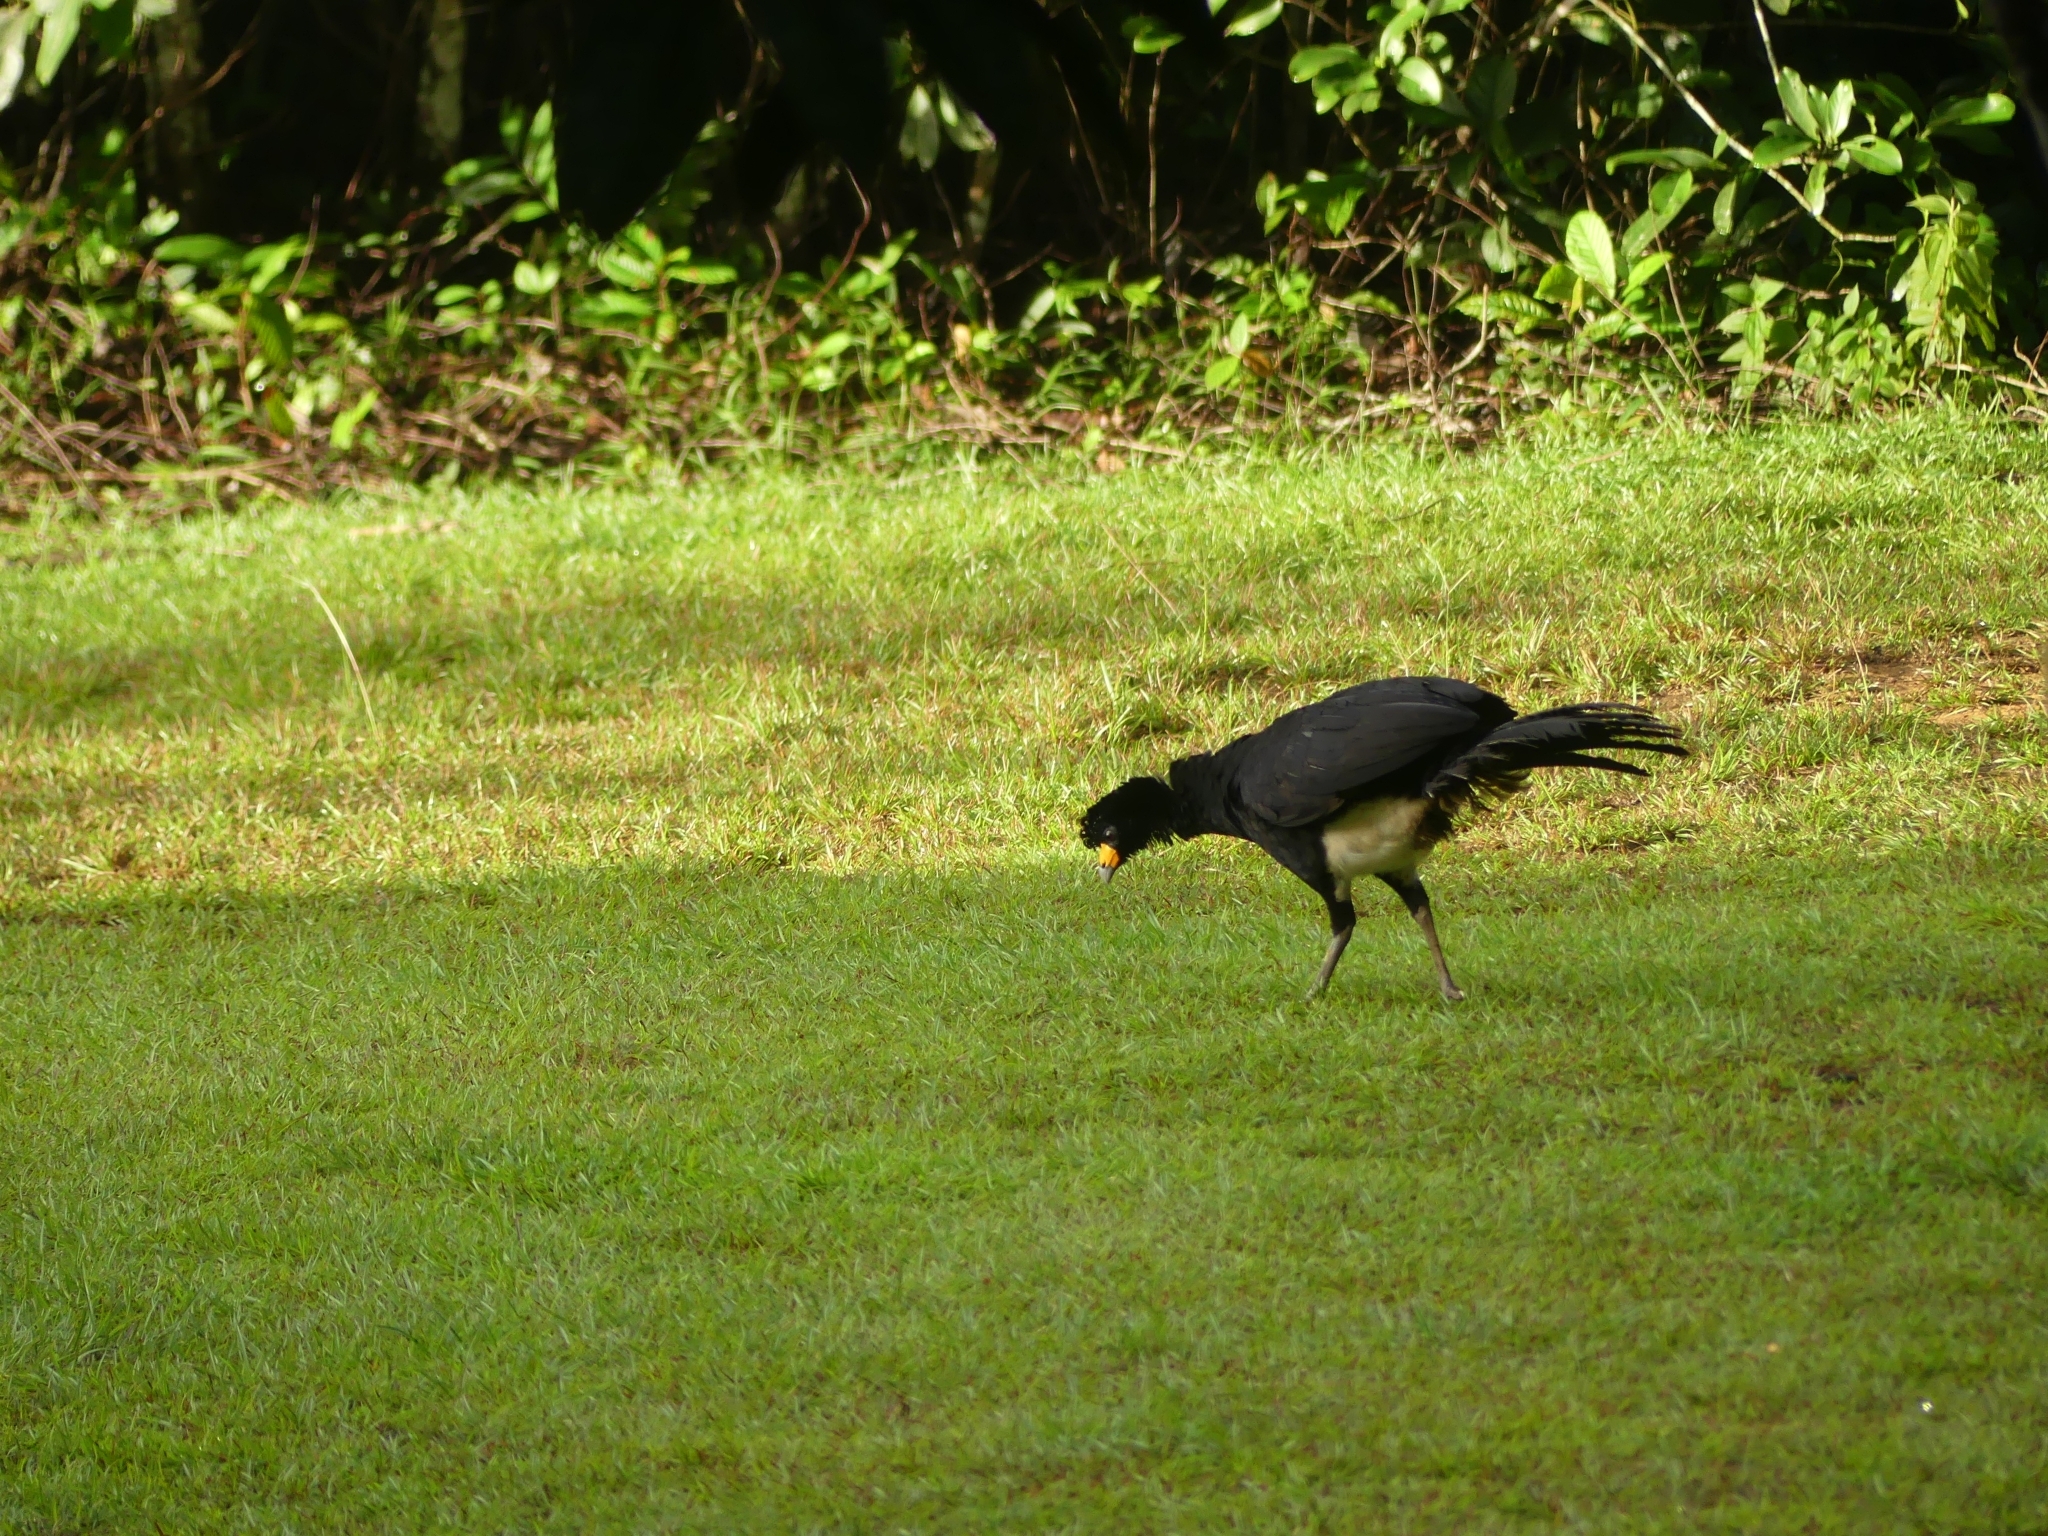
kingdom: Animalia
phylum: Chordata
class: Aves
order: Galliformes
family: Cracidae
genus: Crax
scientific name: Crax alector
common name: Black curassow
